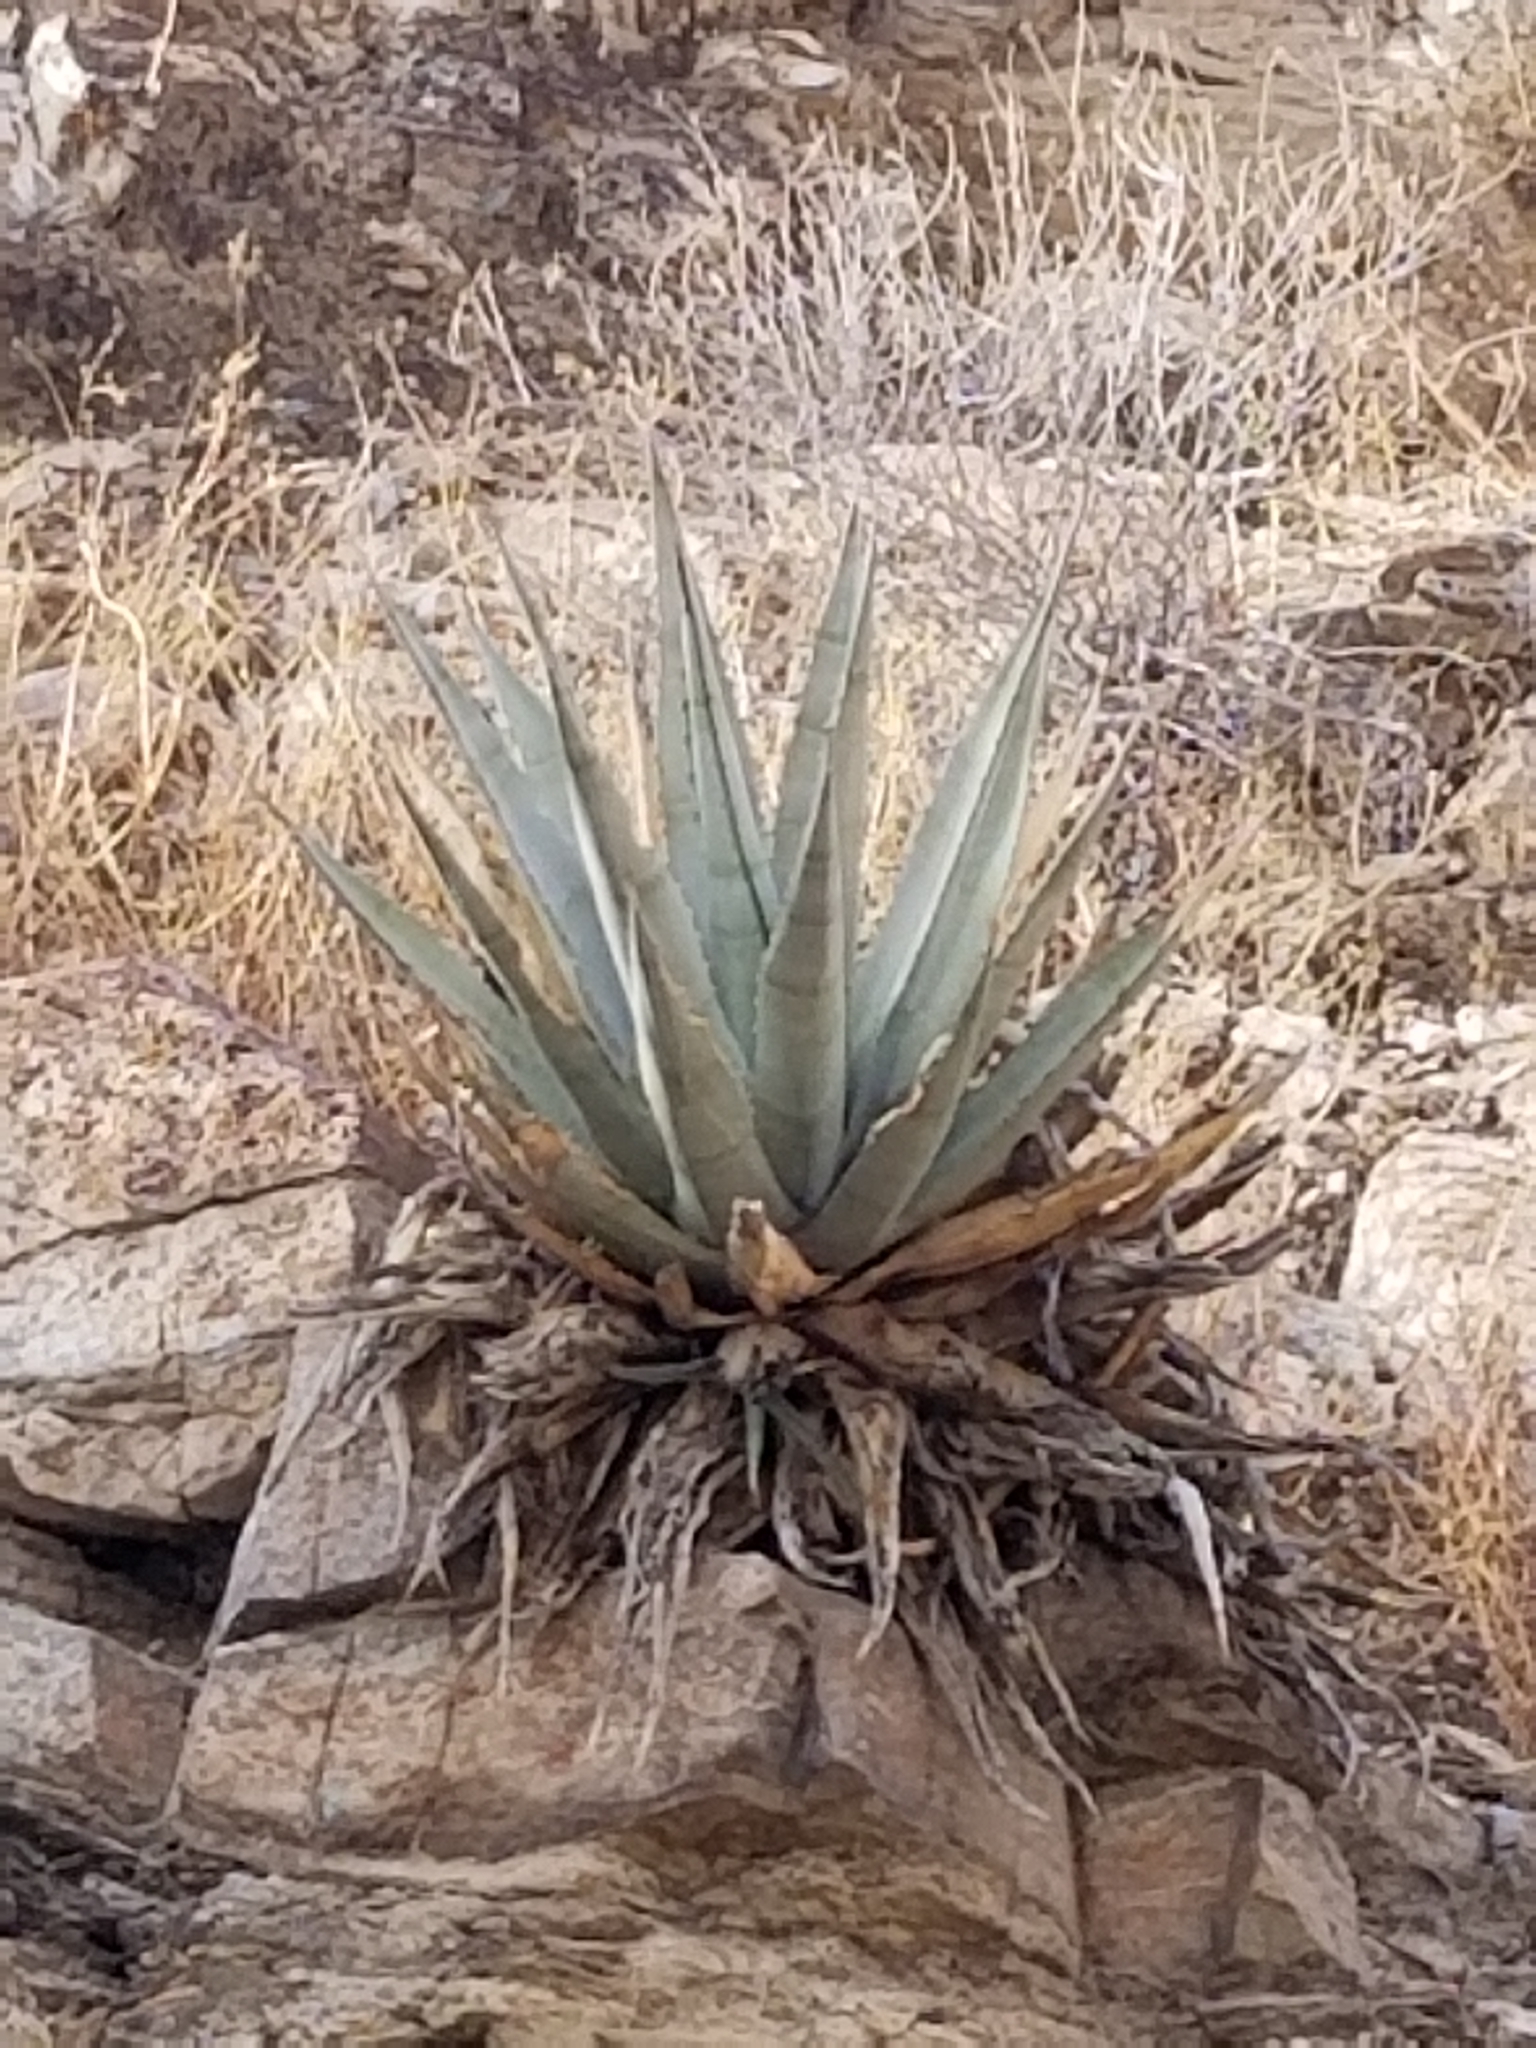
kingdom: Plantae
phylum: Tracheophyta
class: Liliopsida
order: Asparagales
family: Asparagaceae
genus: Agave
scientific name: Agave deserti
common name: Desert agave
